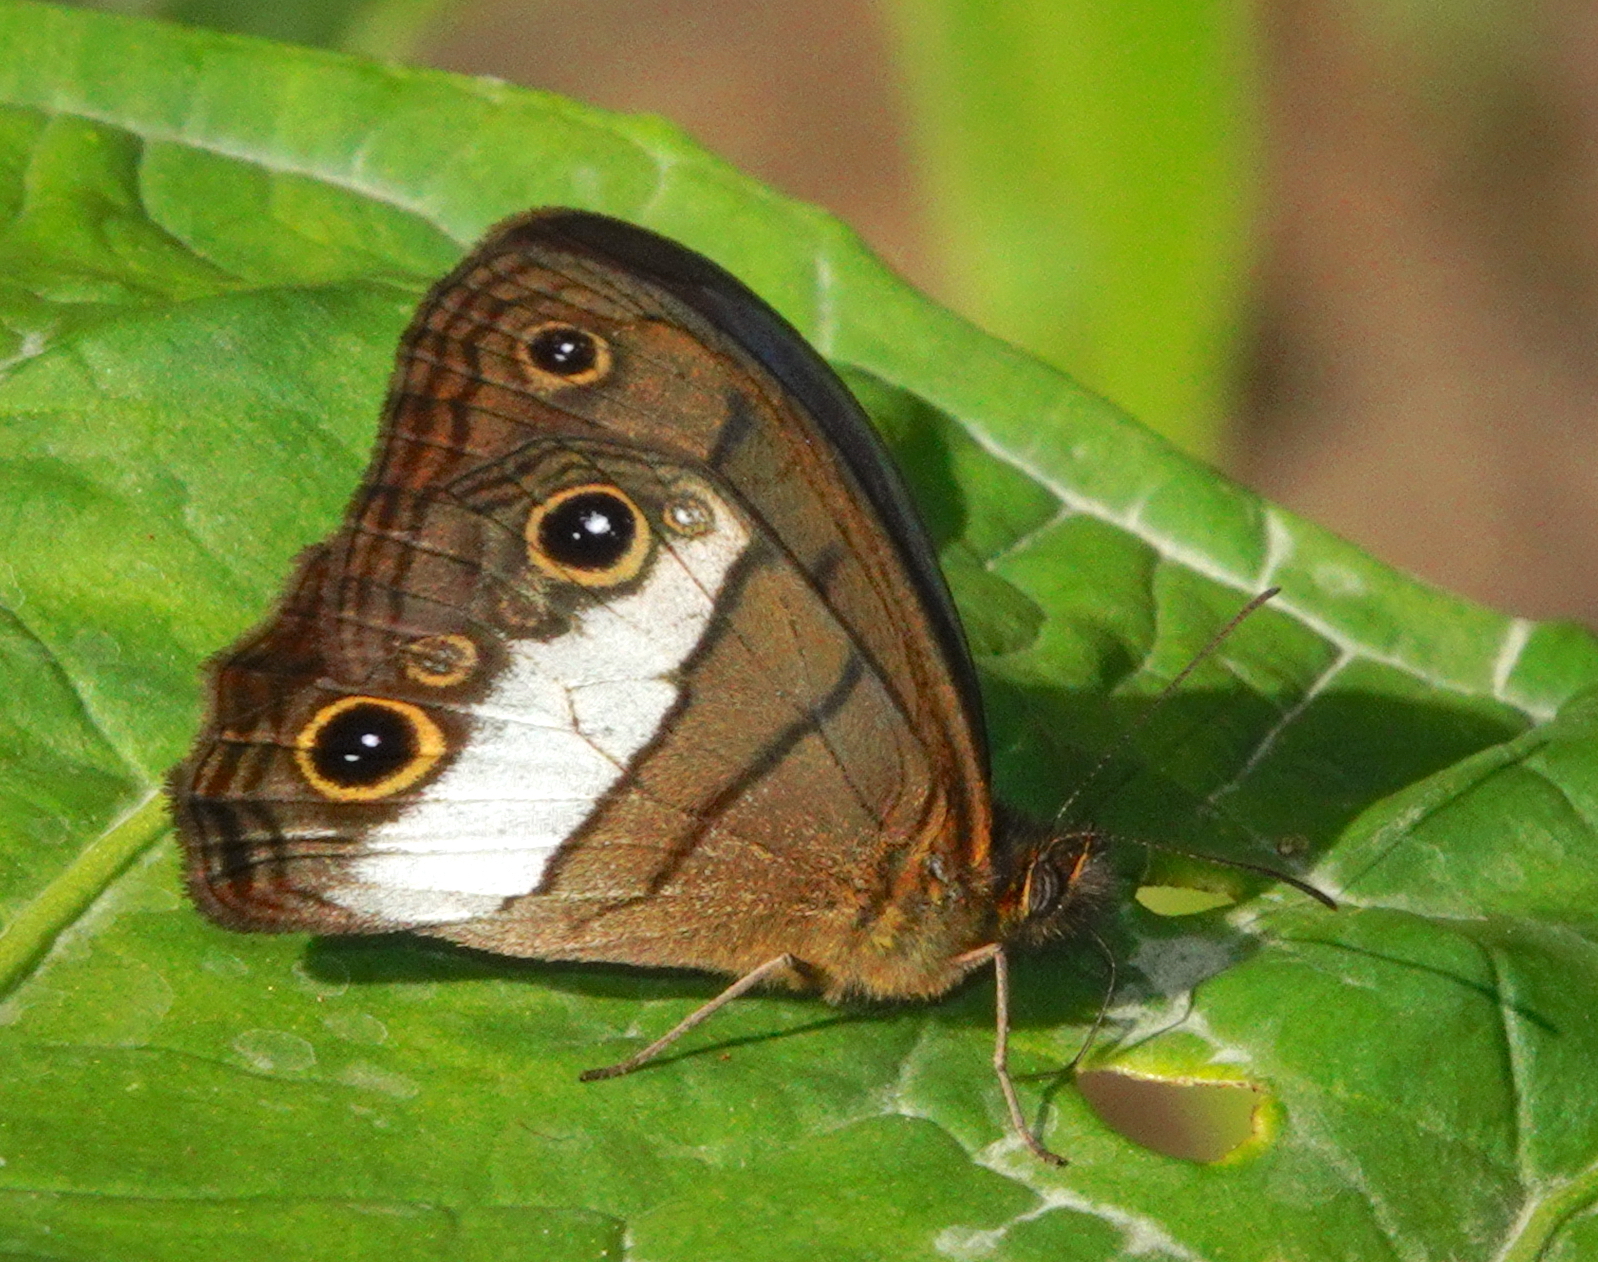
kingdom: Animalia
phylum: Arthropoda
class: Insecta
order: Lepidoptera
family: Nymphalidae
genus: Colombeia
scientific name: Colombeia
